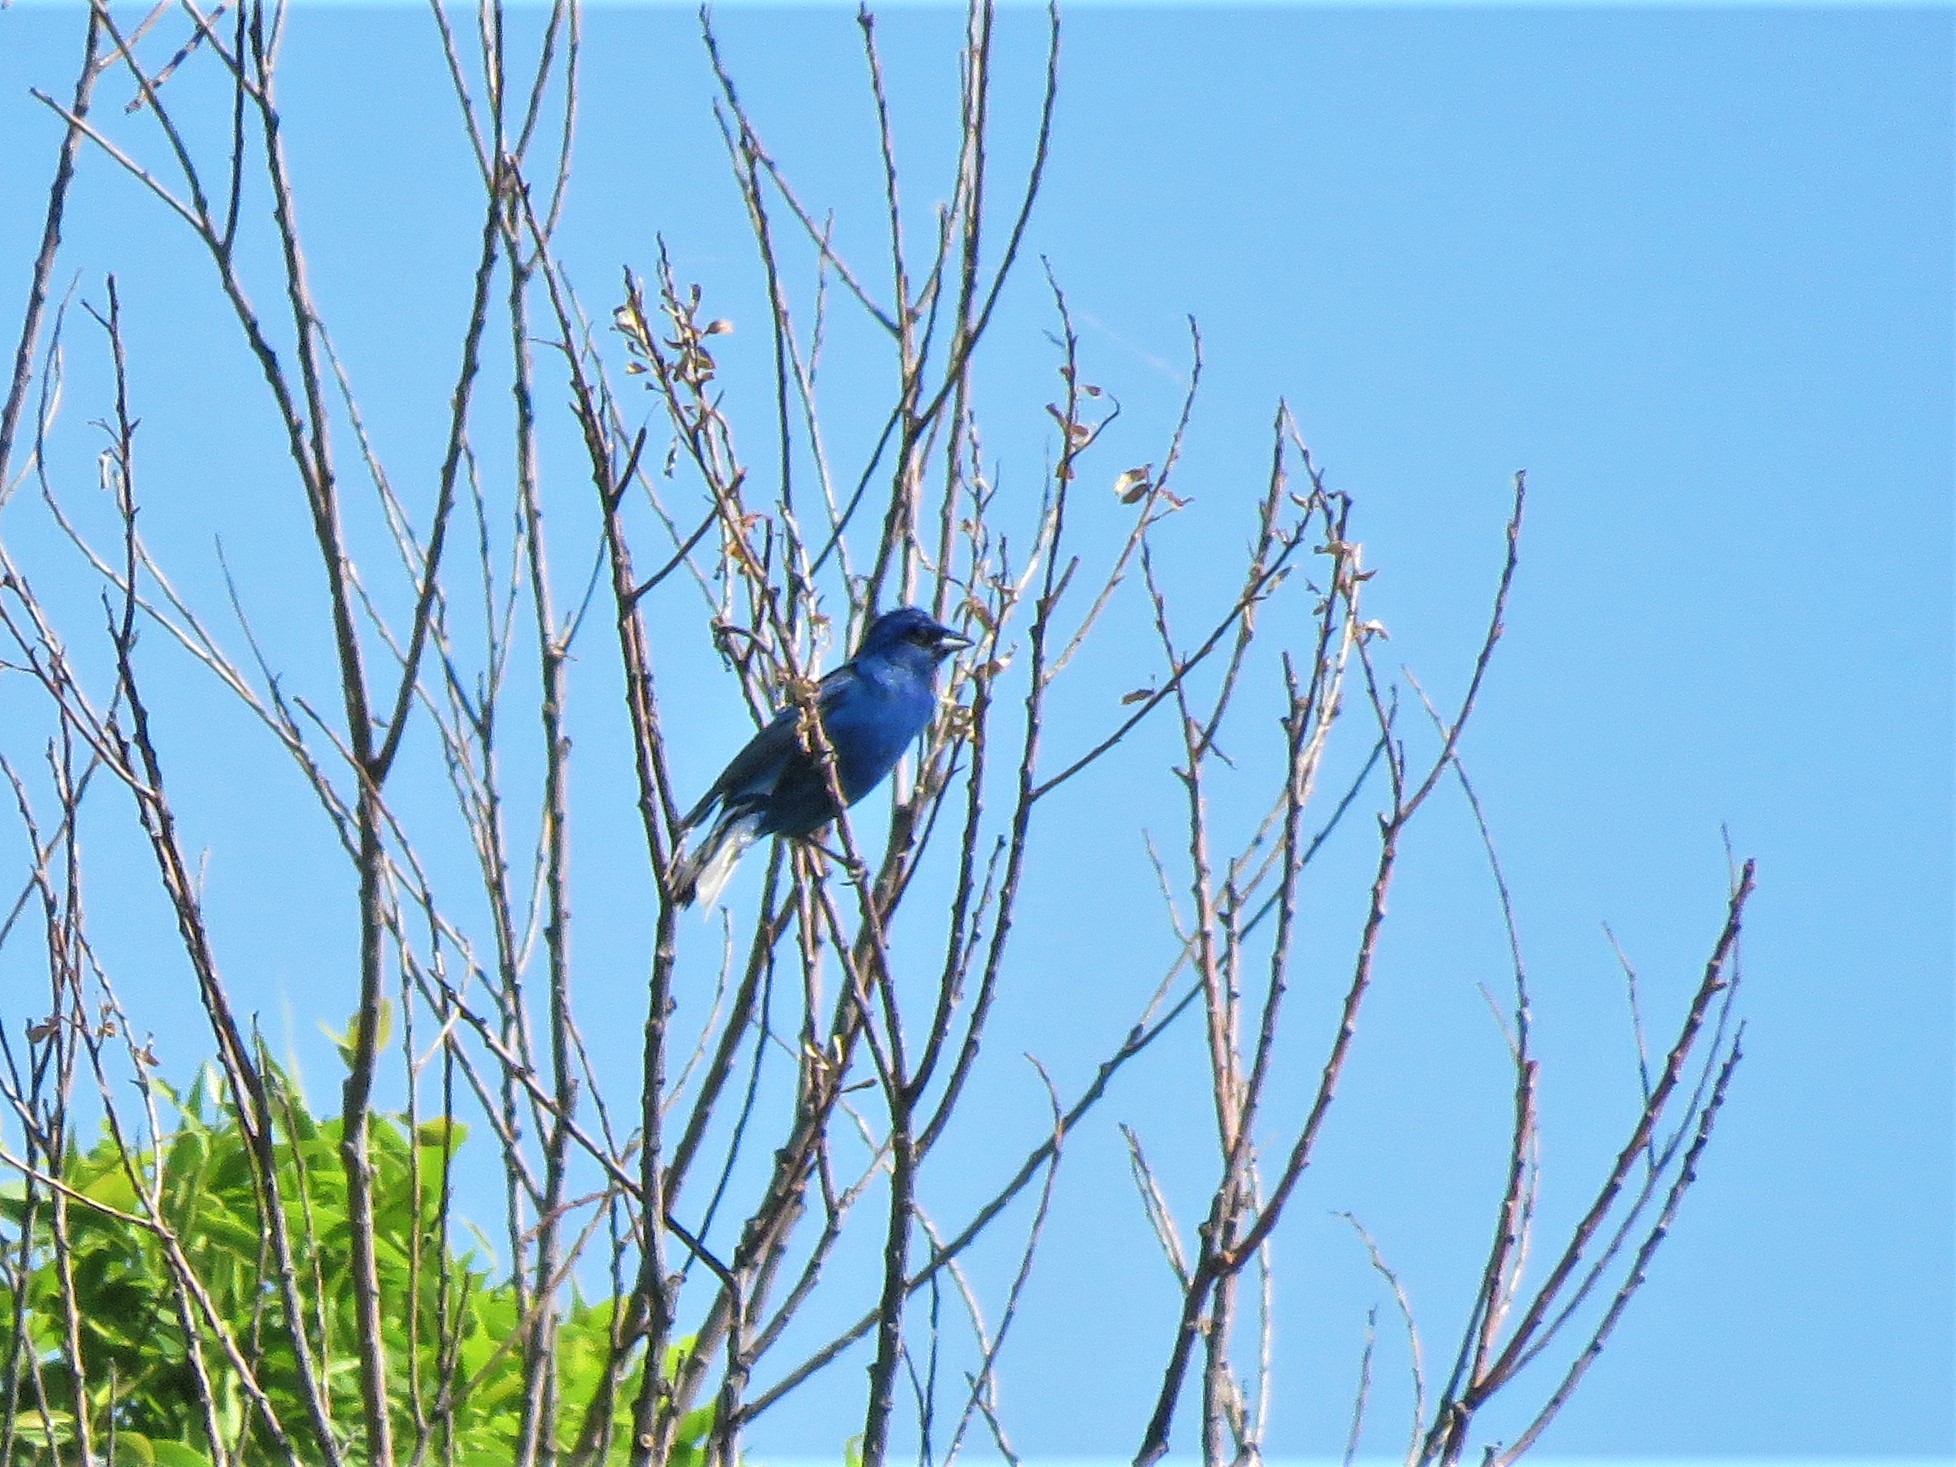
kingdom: Animalia
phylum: Chordata
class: Aves
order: Passeriformes
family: Cardinalidae
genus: Passerina
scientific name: Passerina cyanea
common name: Indigo bunting
